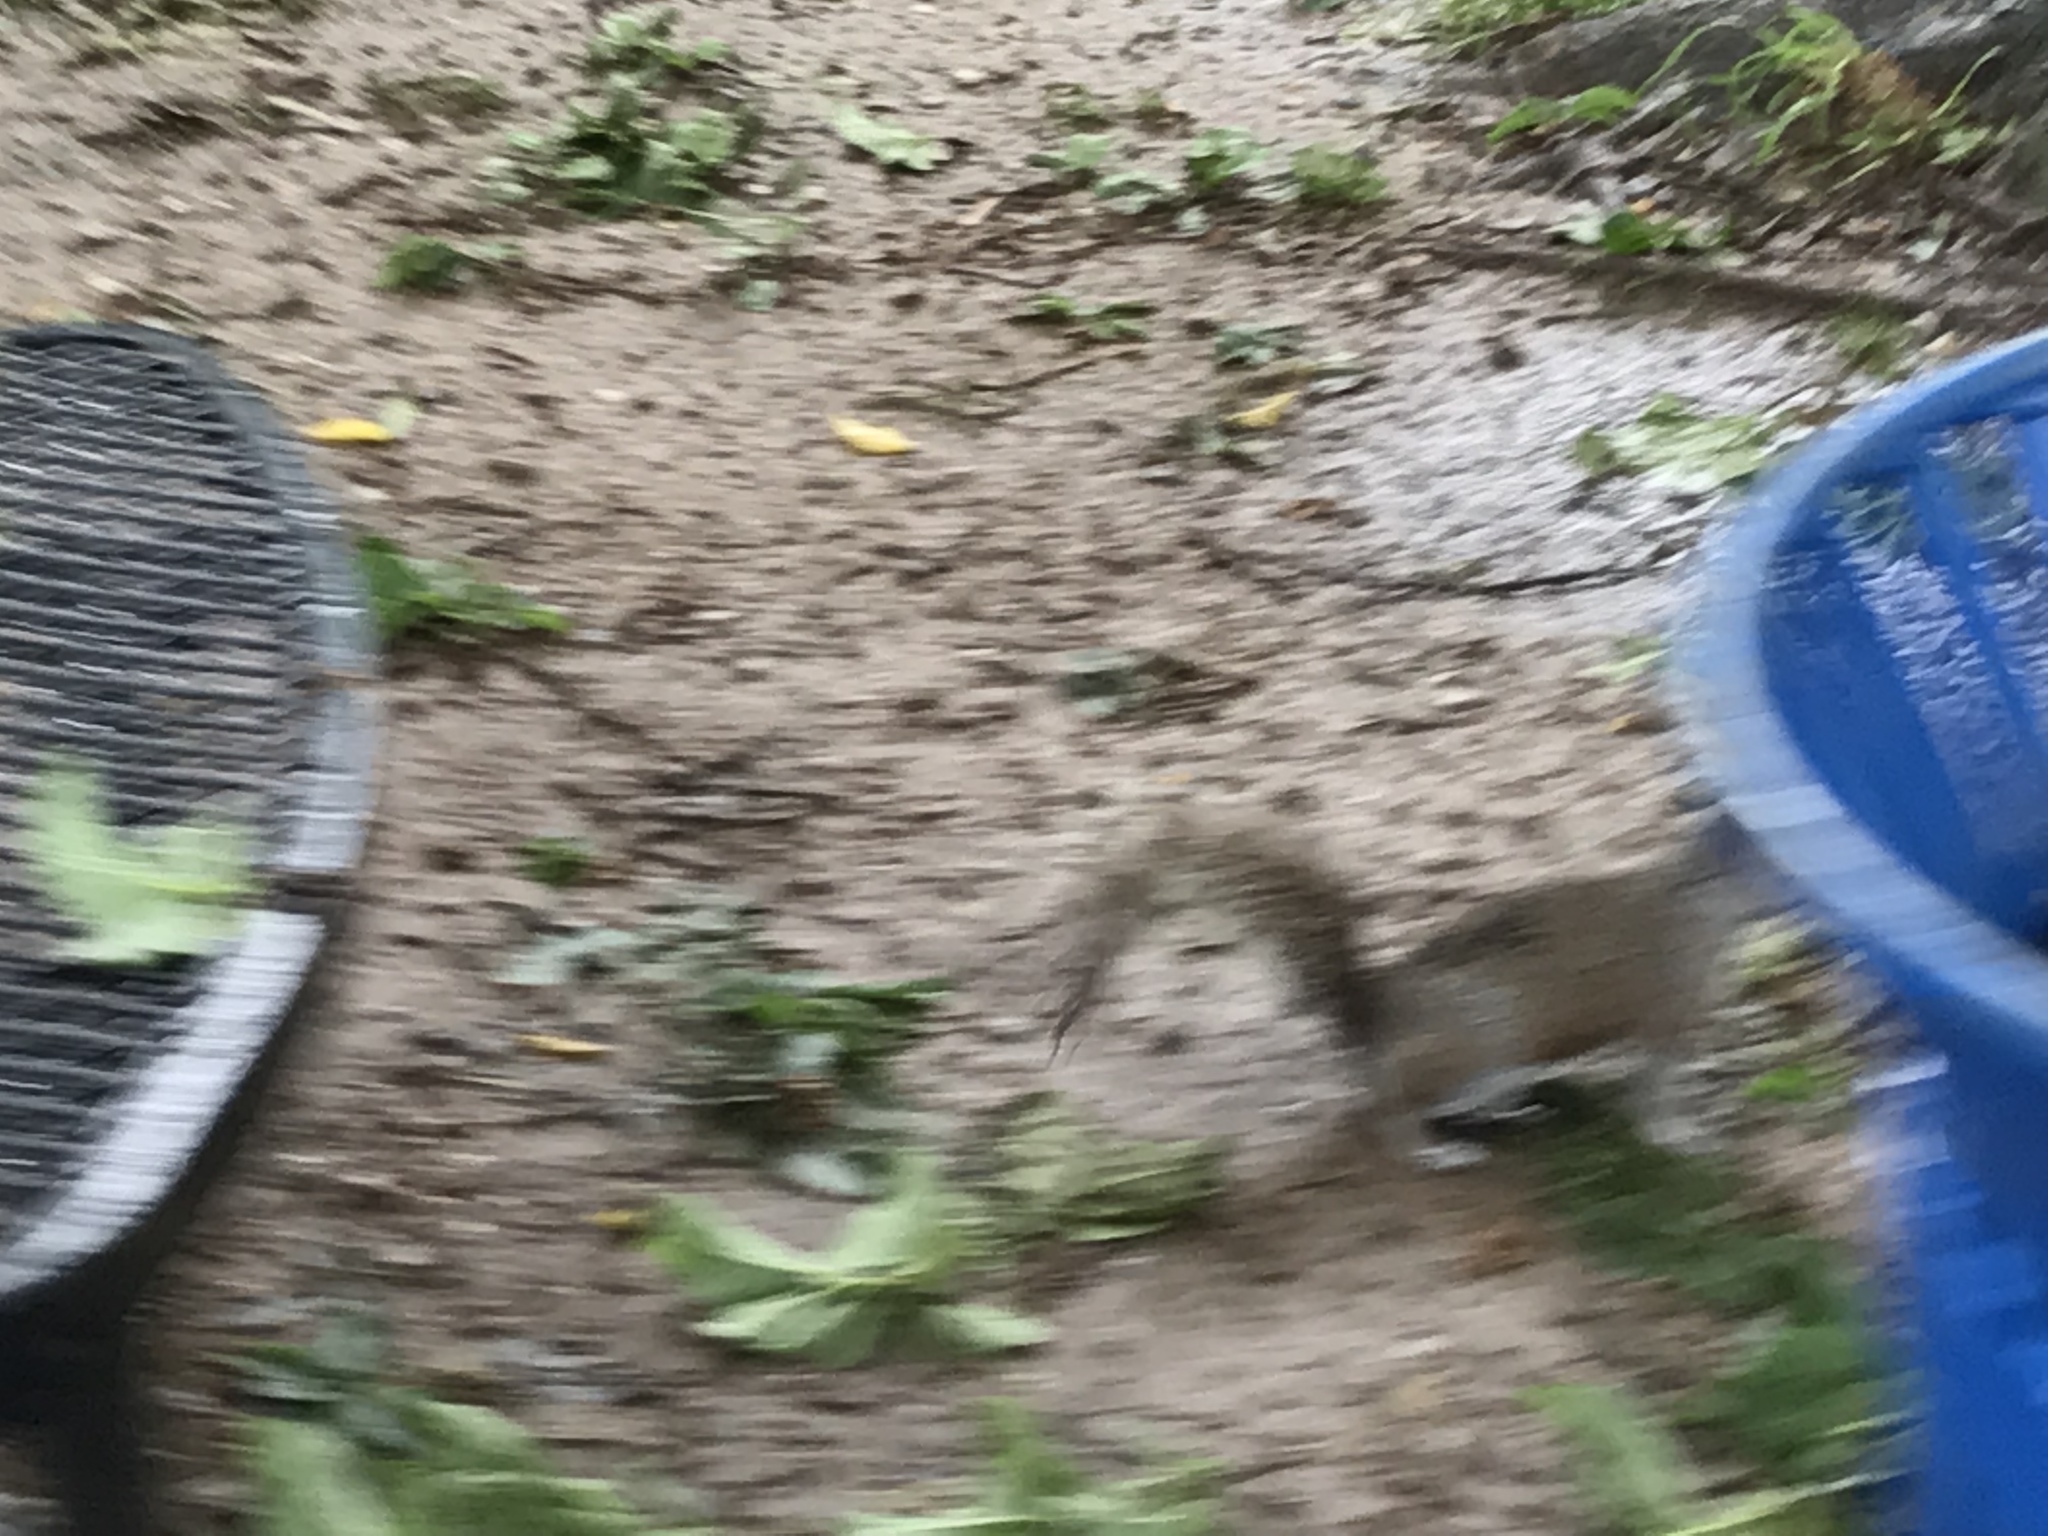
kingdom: Animalia
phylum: Chordata
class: Mammalia
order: Rodentia
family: Sciuridae
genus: Sciurus
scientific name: Sciurus carolinensis
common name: Eastern gray squirrel
